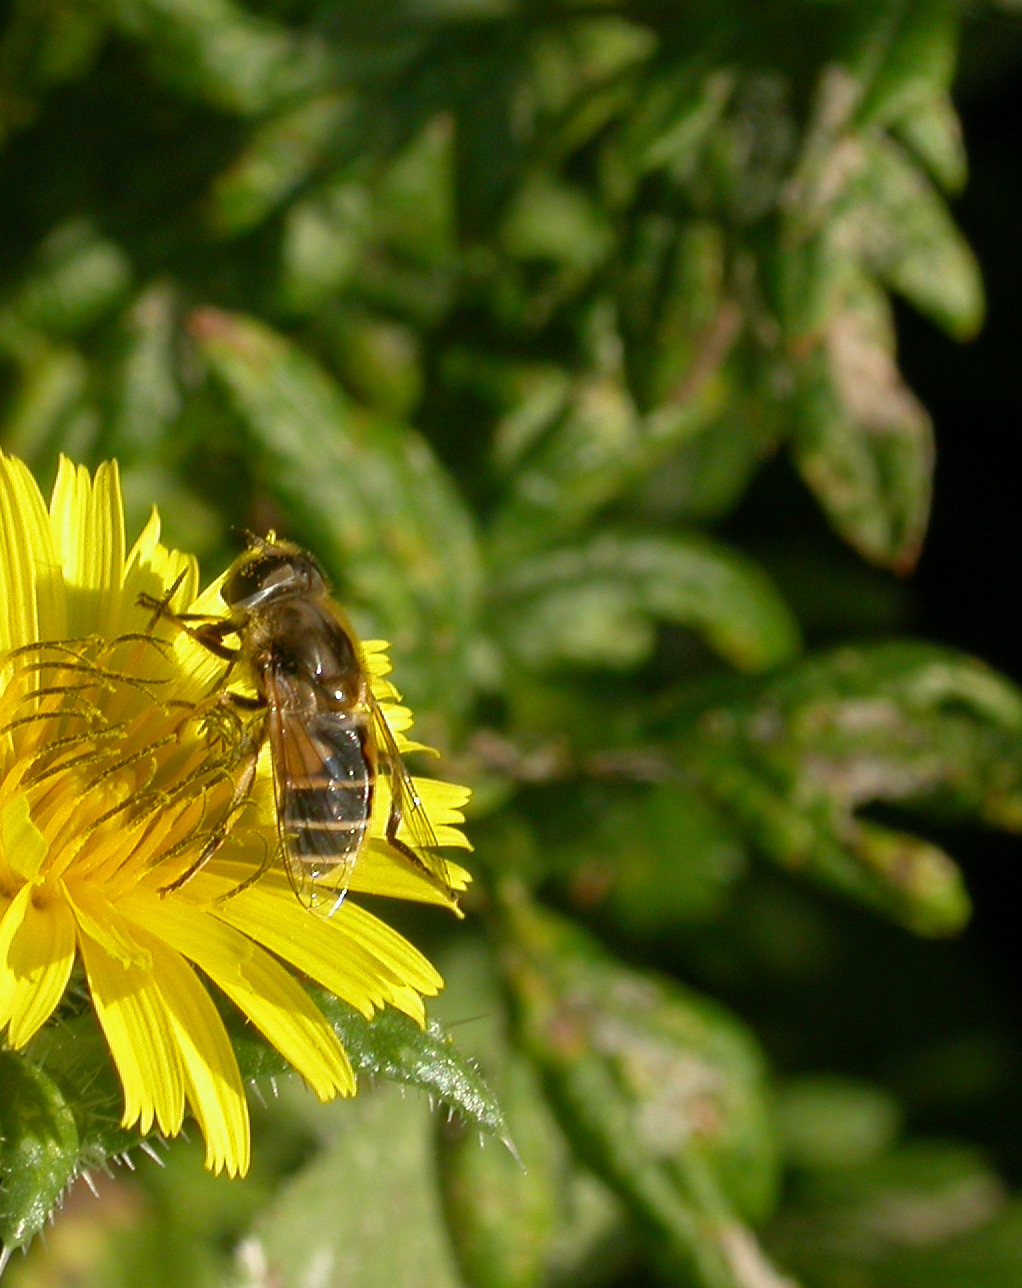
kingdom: Animalia
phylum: Arthropoda
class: Insecta
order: Diptera
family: Syrphidae
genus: Eristalis
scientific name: Eristalis arbustorum
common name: Hover fly
